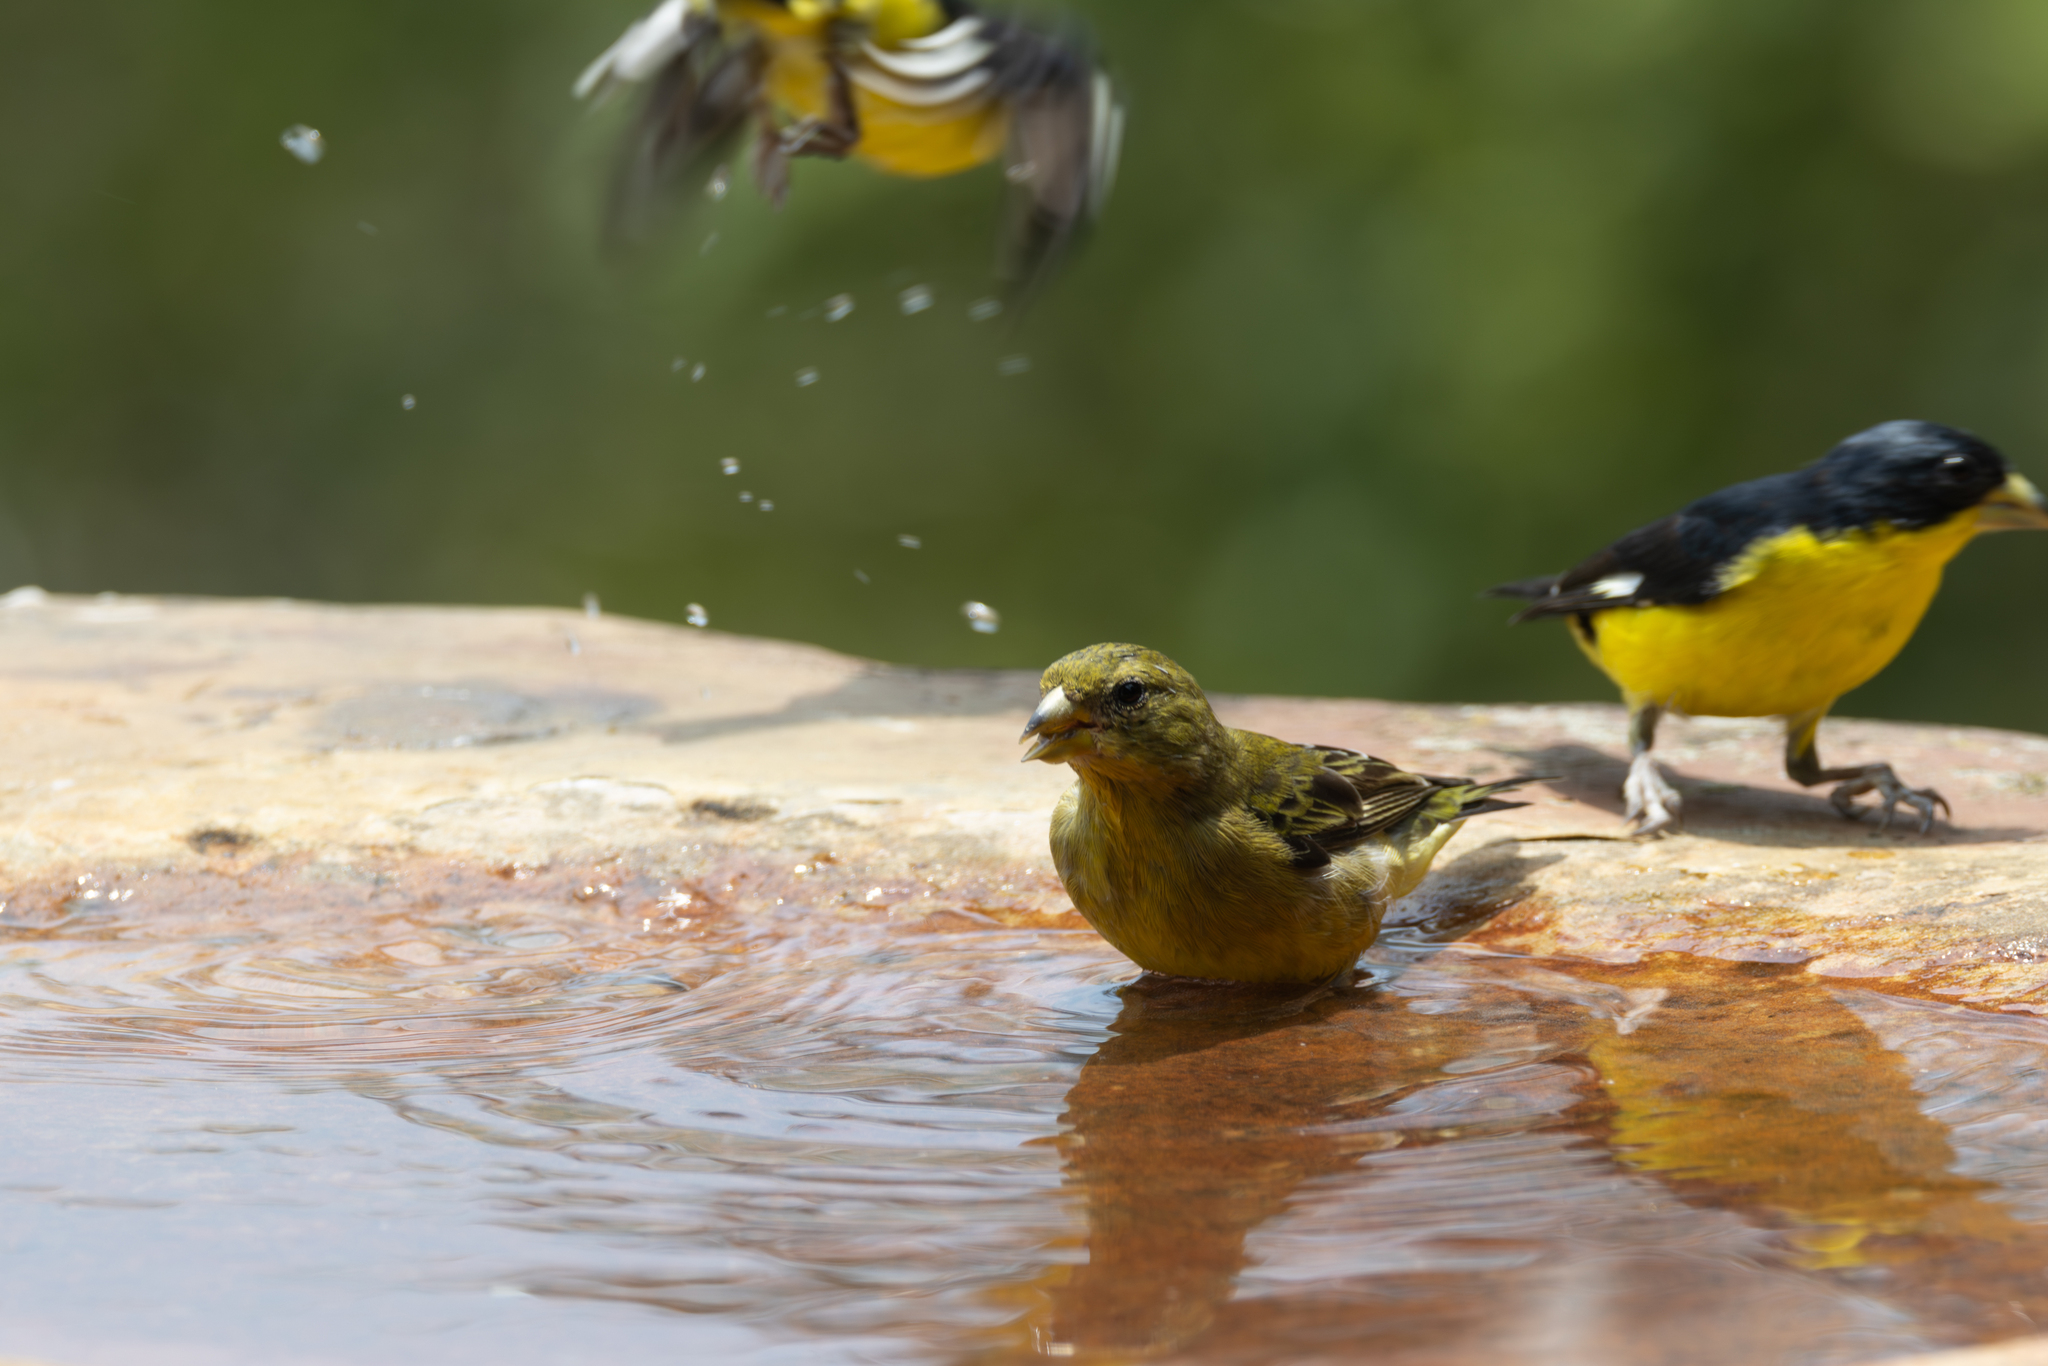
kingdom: Animalia
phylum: Chordata
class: Aves
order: Passeriformes
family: Fringillidae
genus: Spinus
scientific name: Spinus psaltria
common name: Lesser goldfinch
